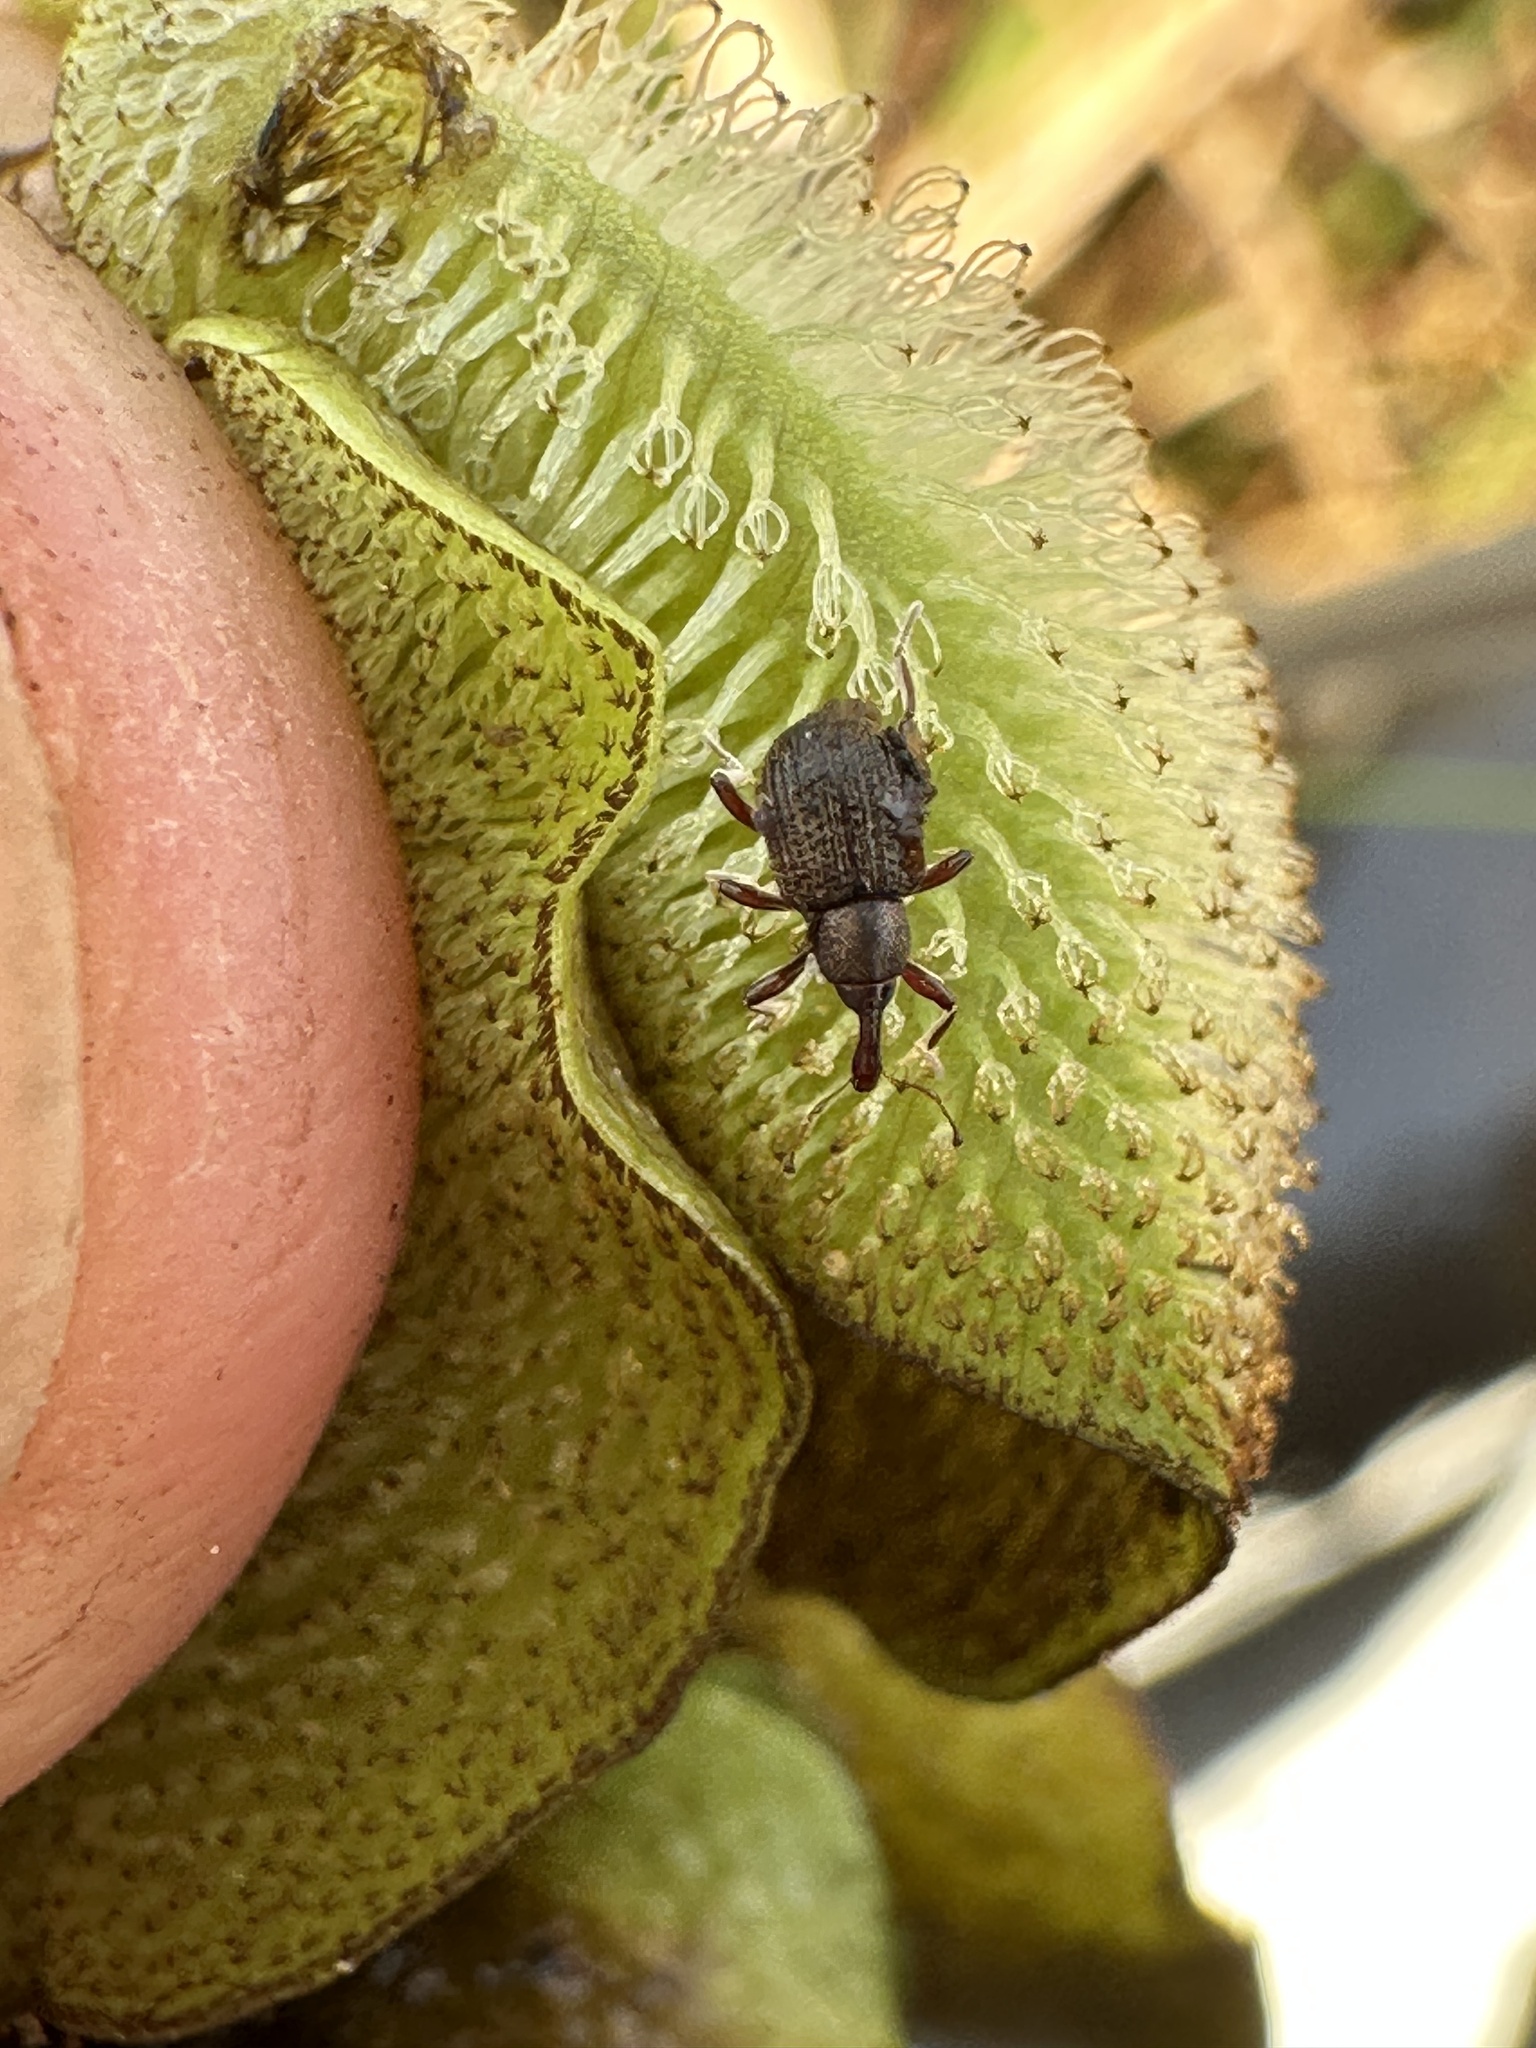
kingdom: Animalia
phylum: Arthropoda
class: Insecta
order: Coleoptera
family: Brachyceridae
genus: Cyrtobagous
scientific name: Cyrtobagous salviniae
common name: Salvinia weevil
